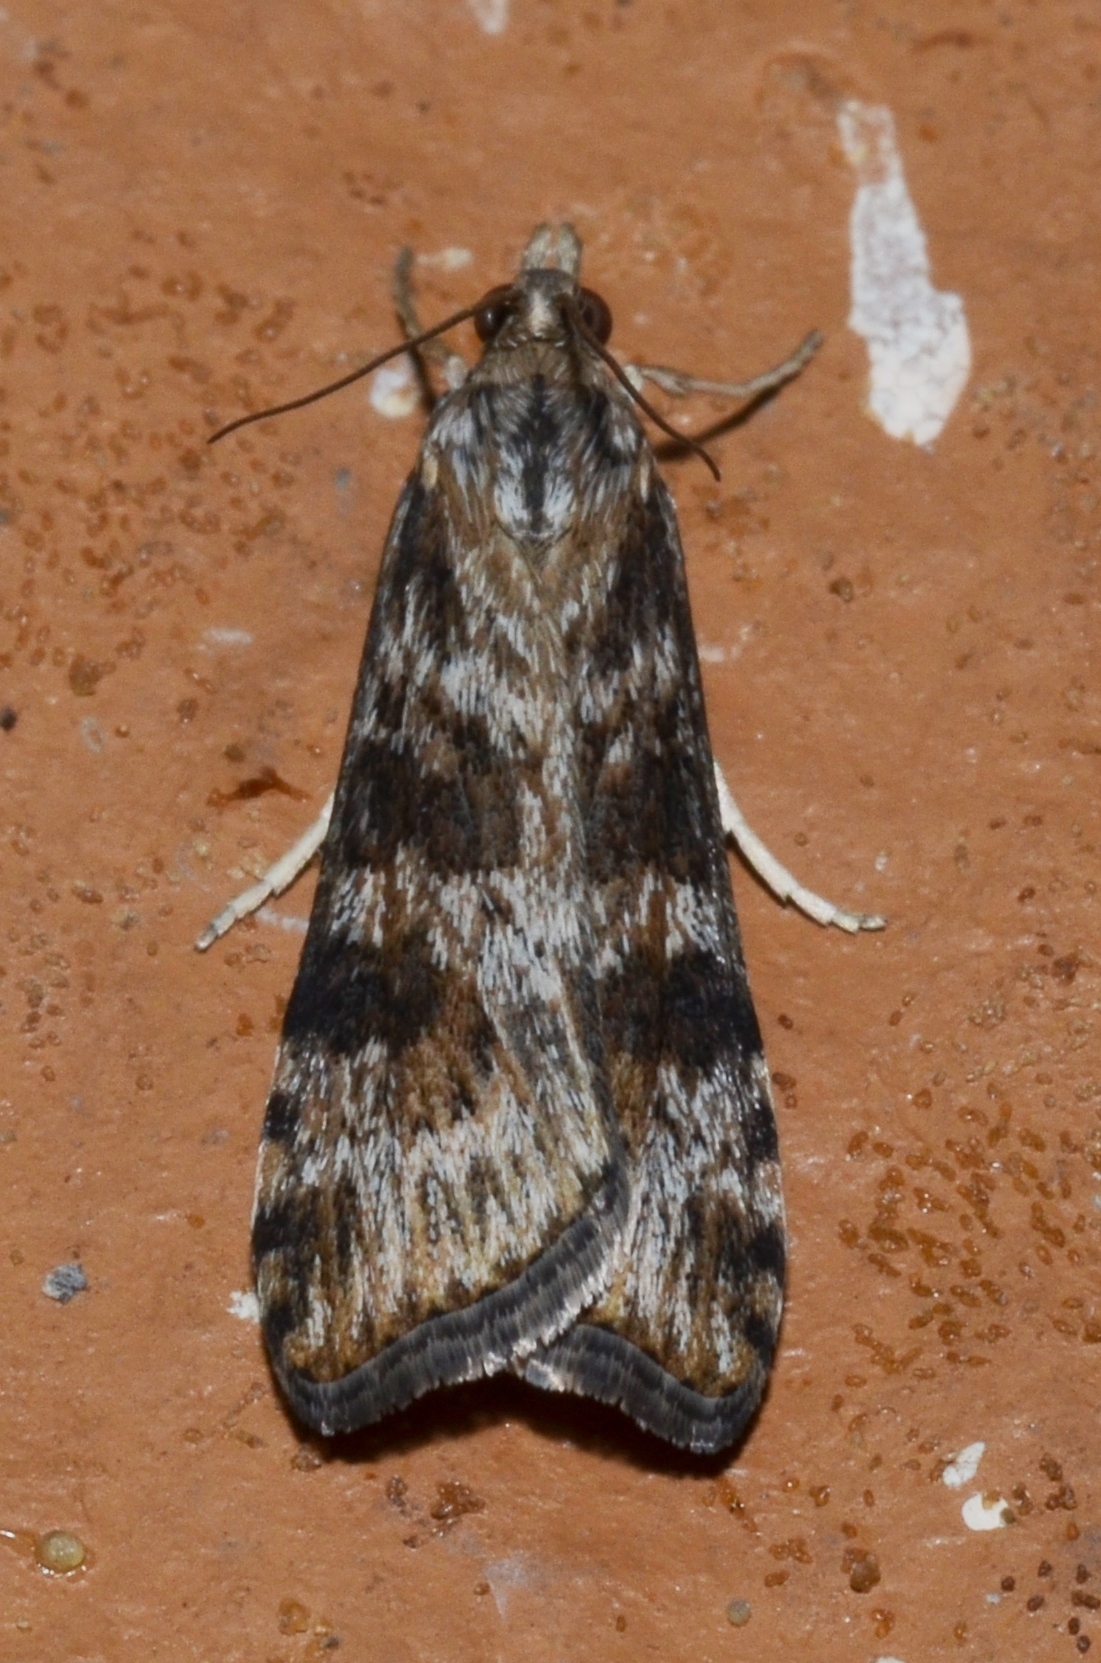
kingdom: Animalia
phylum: Arthropoda
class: Insecta
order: Lepidoptera
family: Crambidae
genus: Nomophila
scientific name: Nomophila nearctica
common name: American rush veneer
